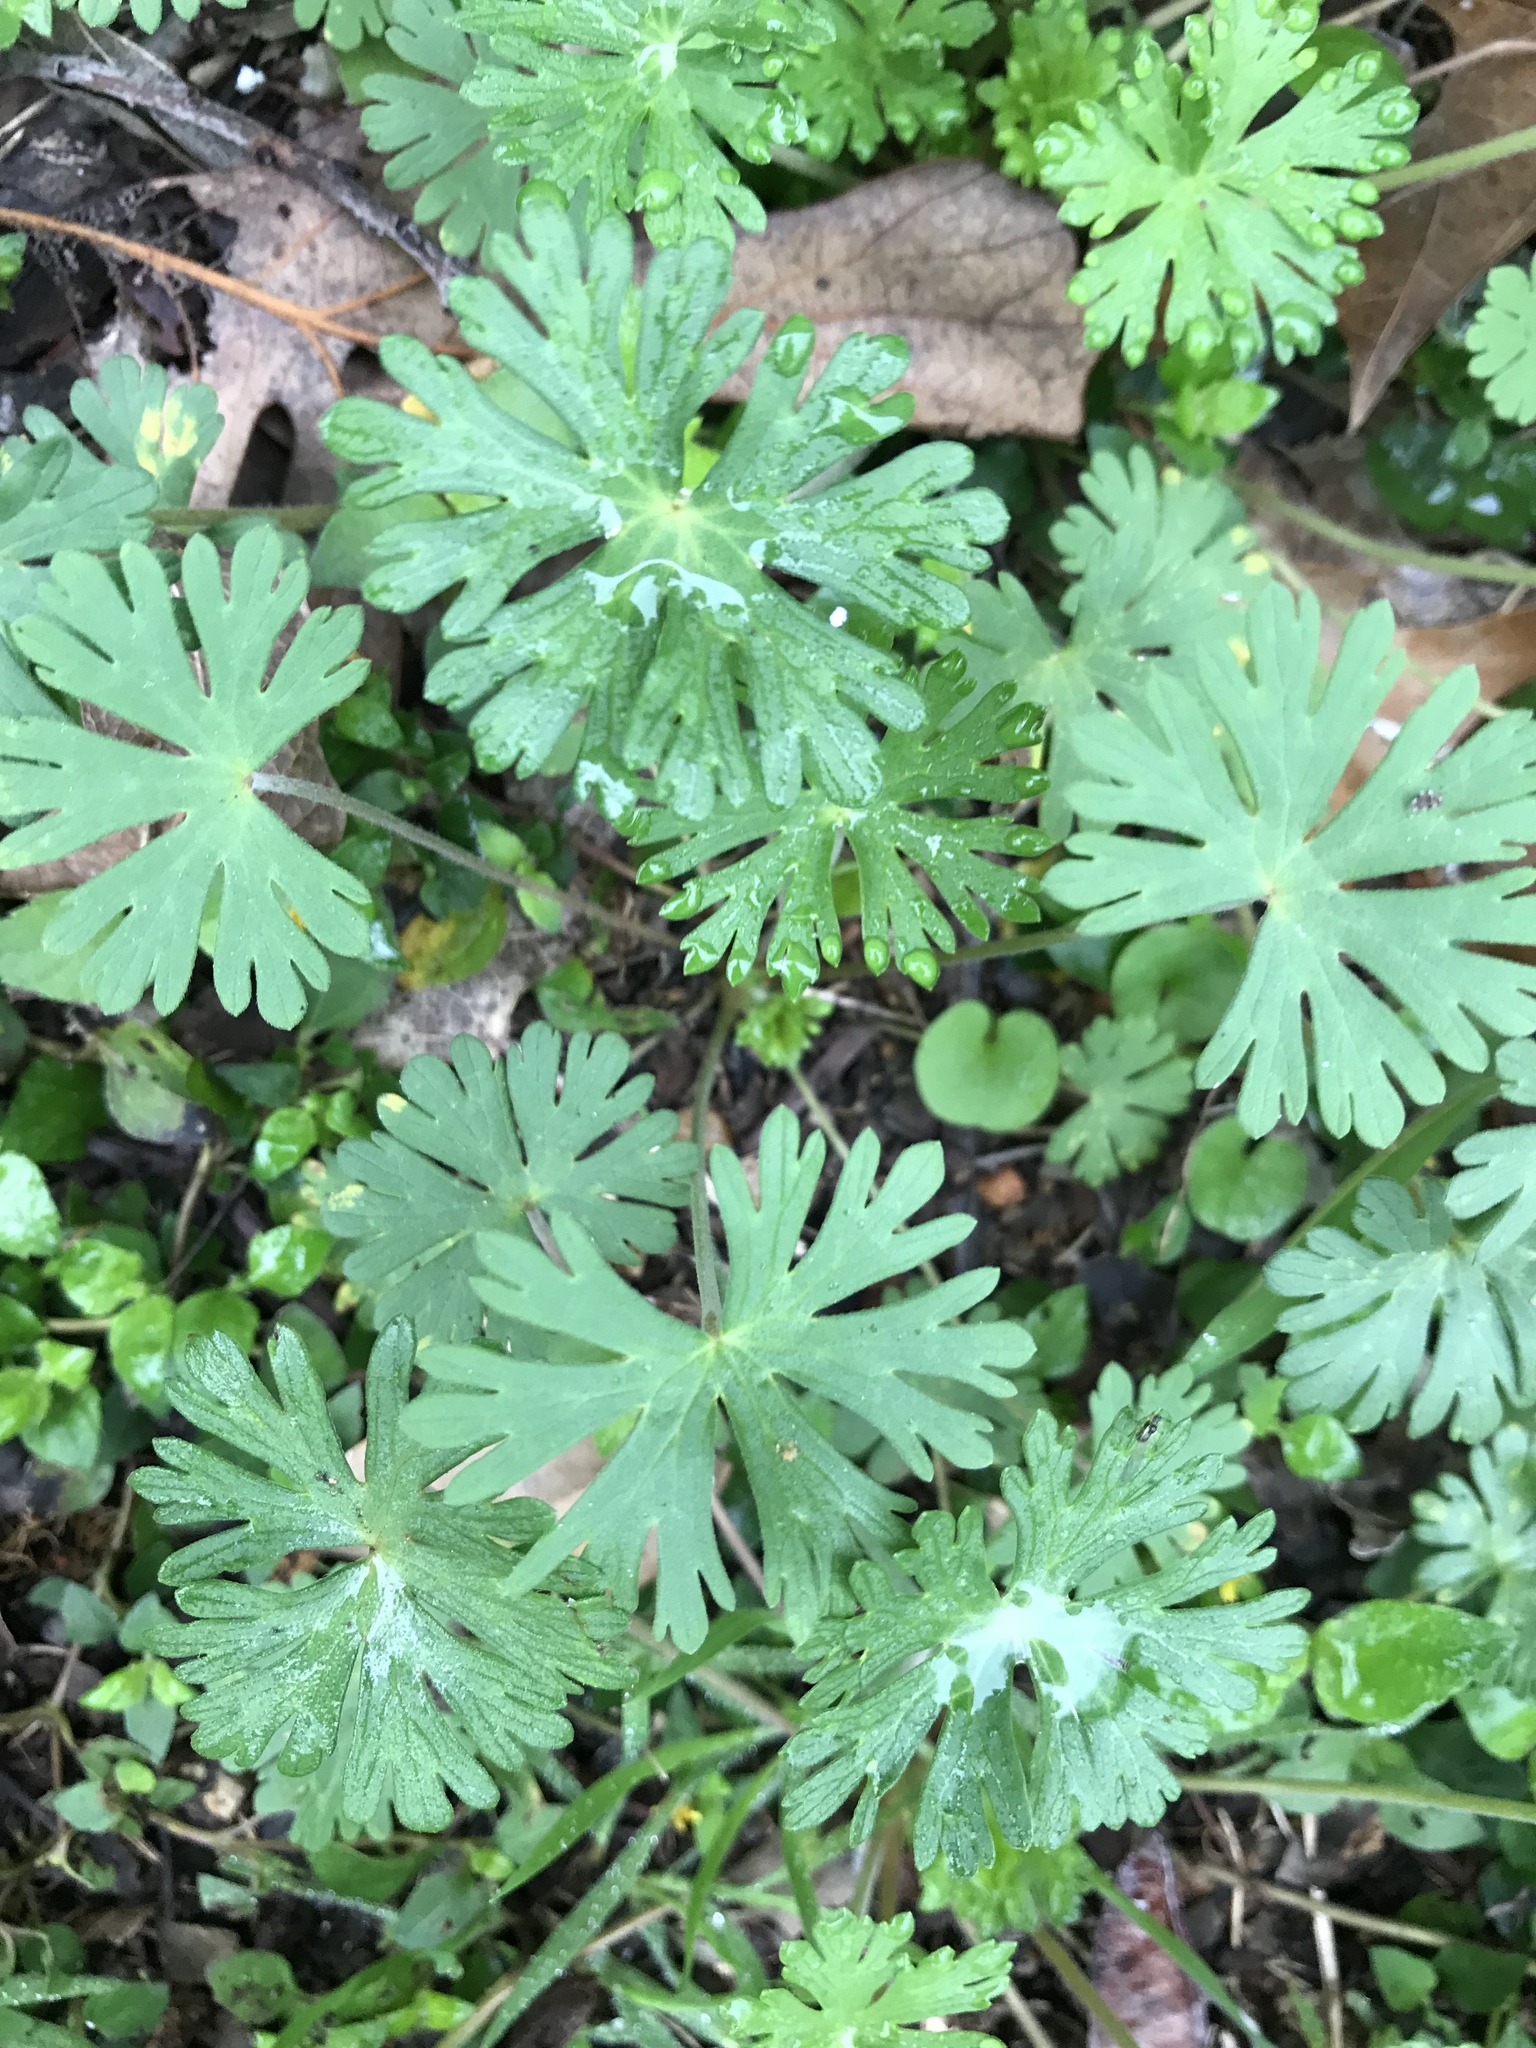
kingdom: Plantae
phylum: Tracheophyta
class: Magnoliopsida
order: Geraniales
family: Geraniaceae
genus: Geranium
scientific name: Geranium carolinianum
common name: Carolina crane's-bill
